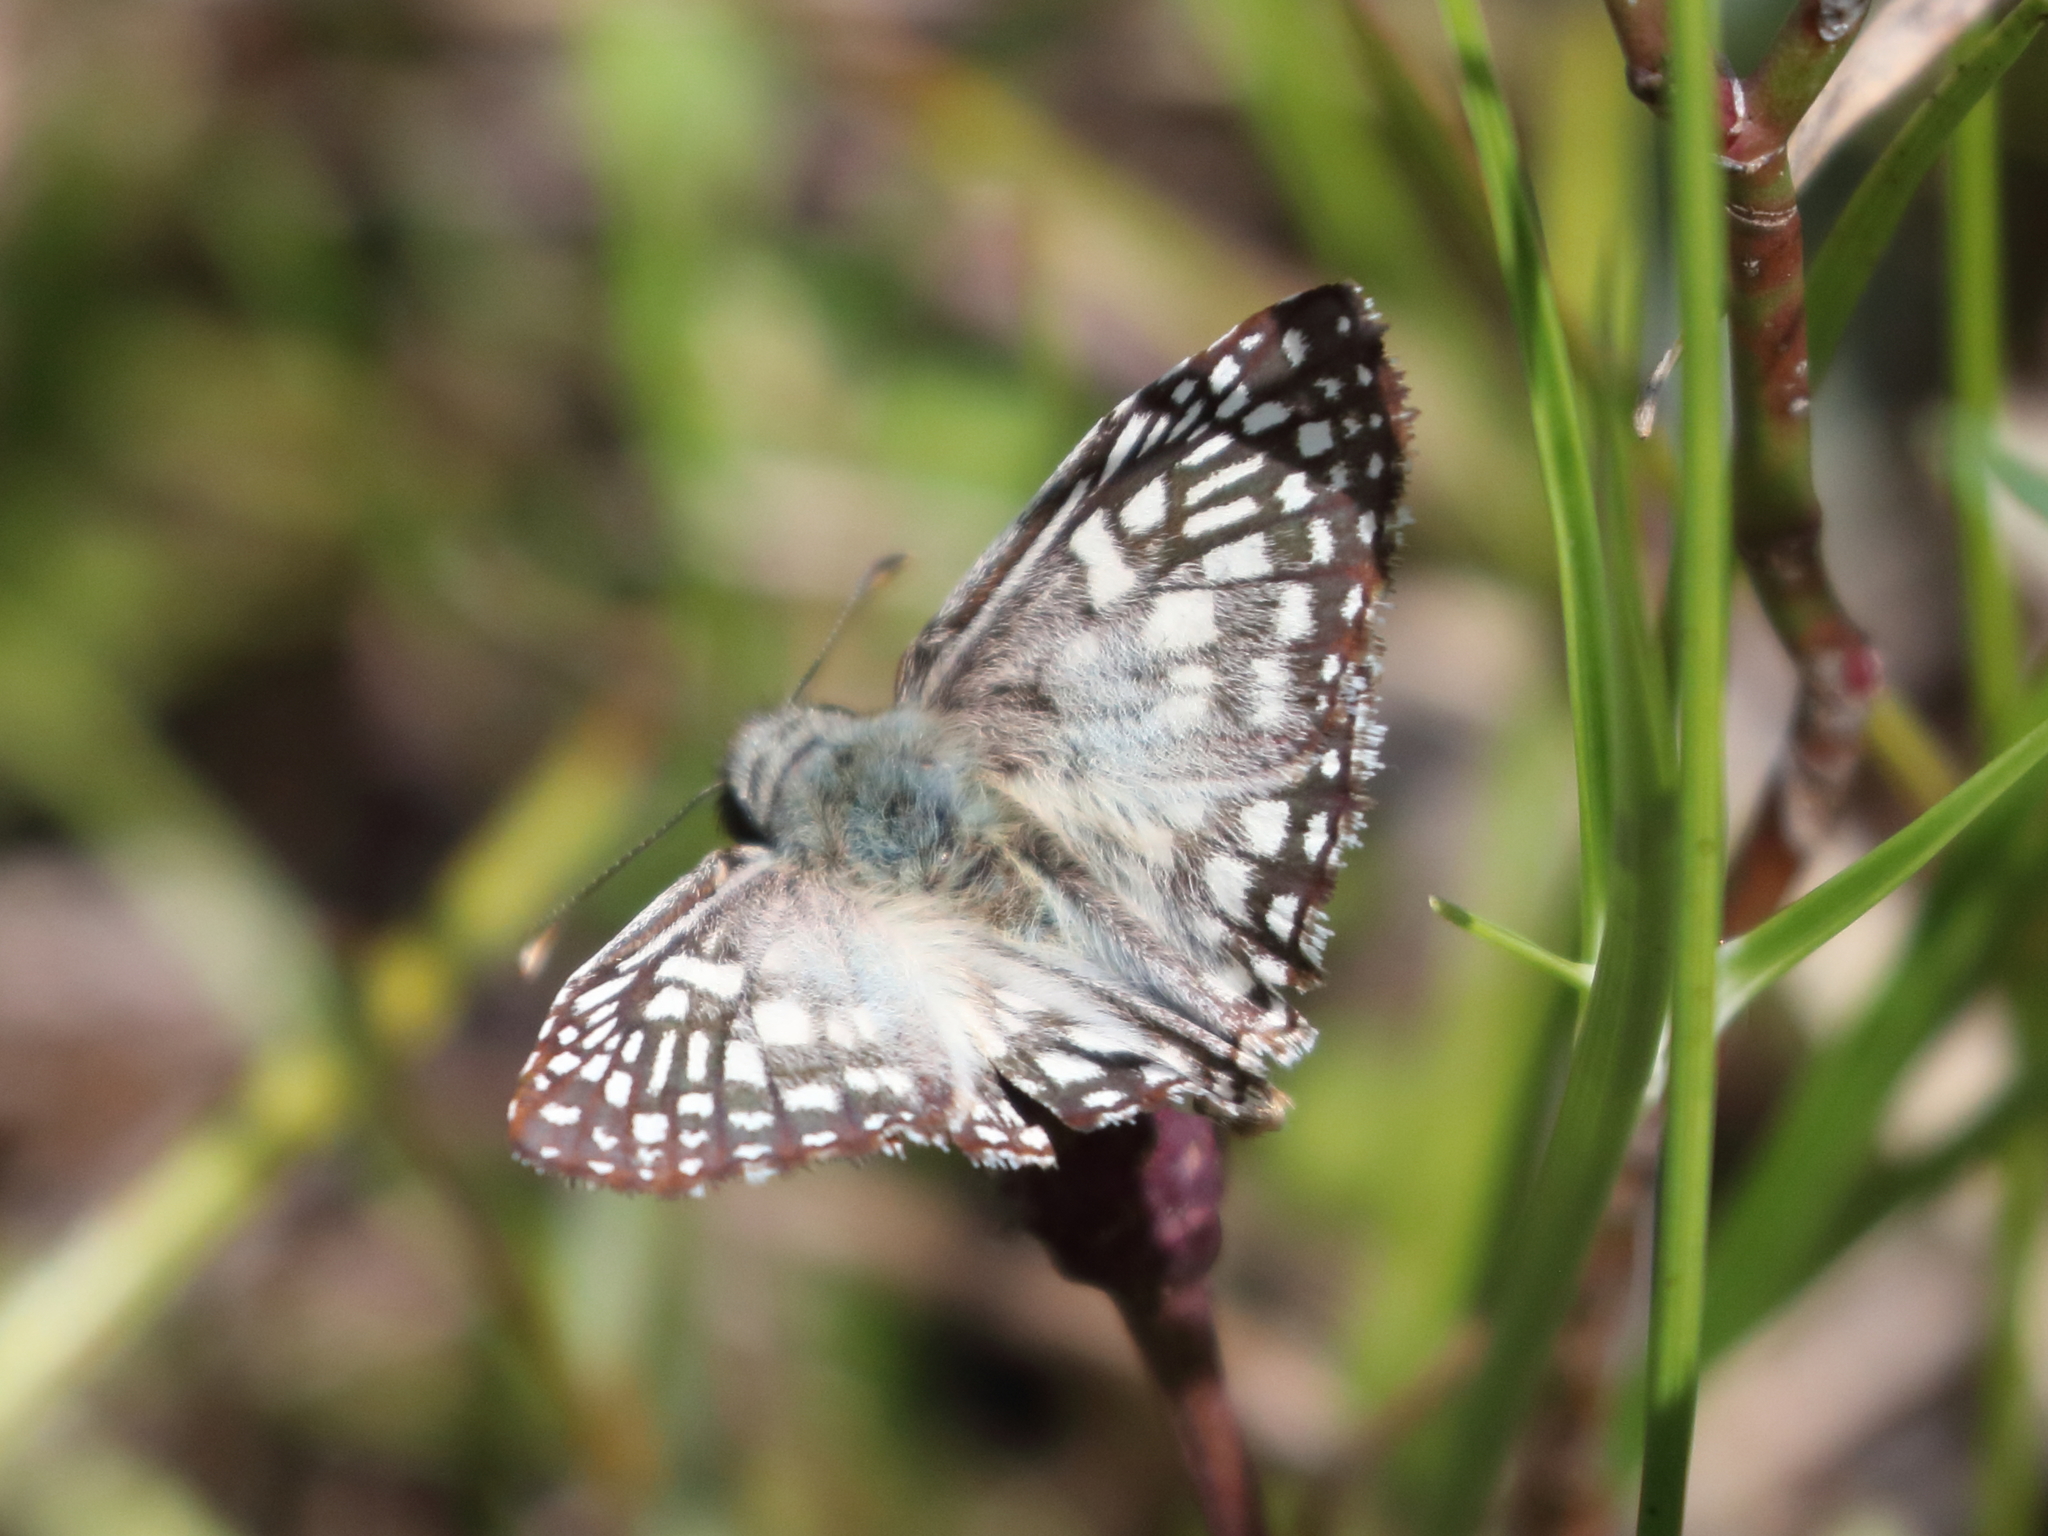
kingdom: Animalia
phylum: Arthropoda
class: Insecta
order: Lepidoptera
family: Hesperiidae
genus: Pyrgus
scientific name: Pyrgus oileus
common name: Tropical checkered-skipper
